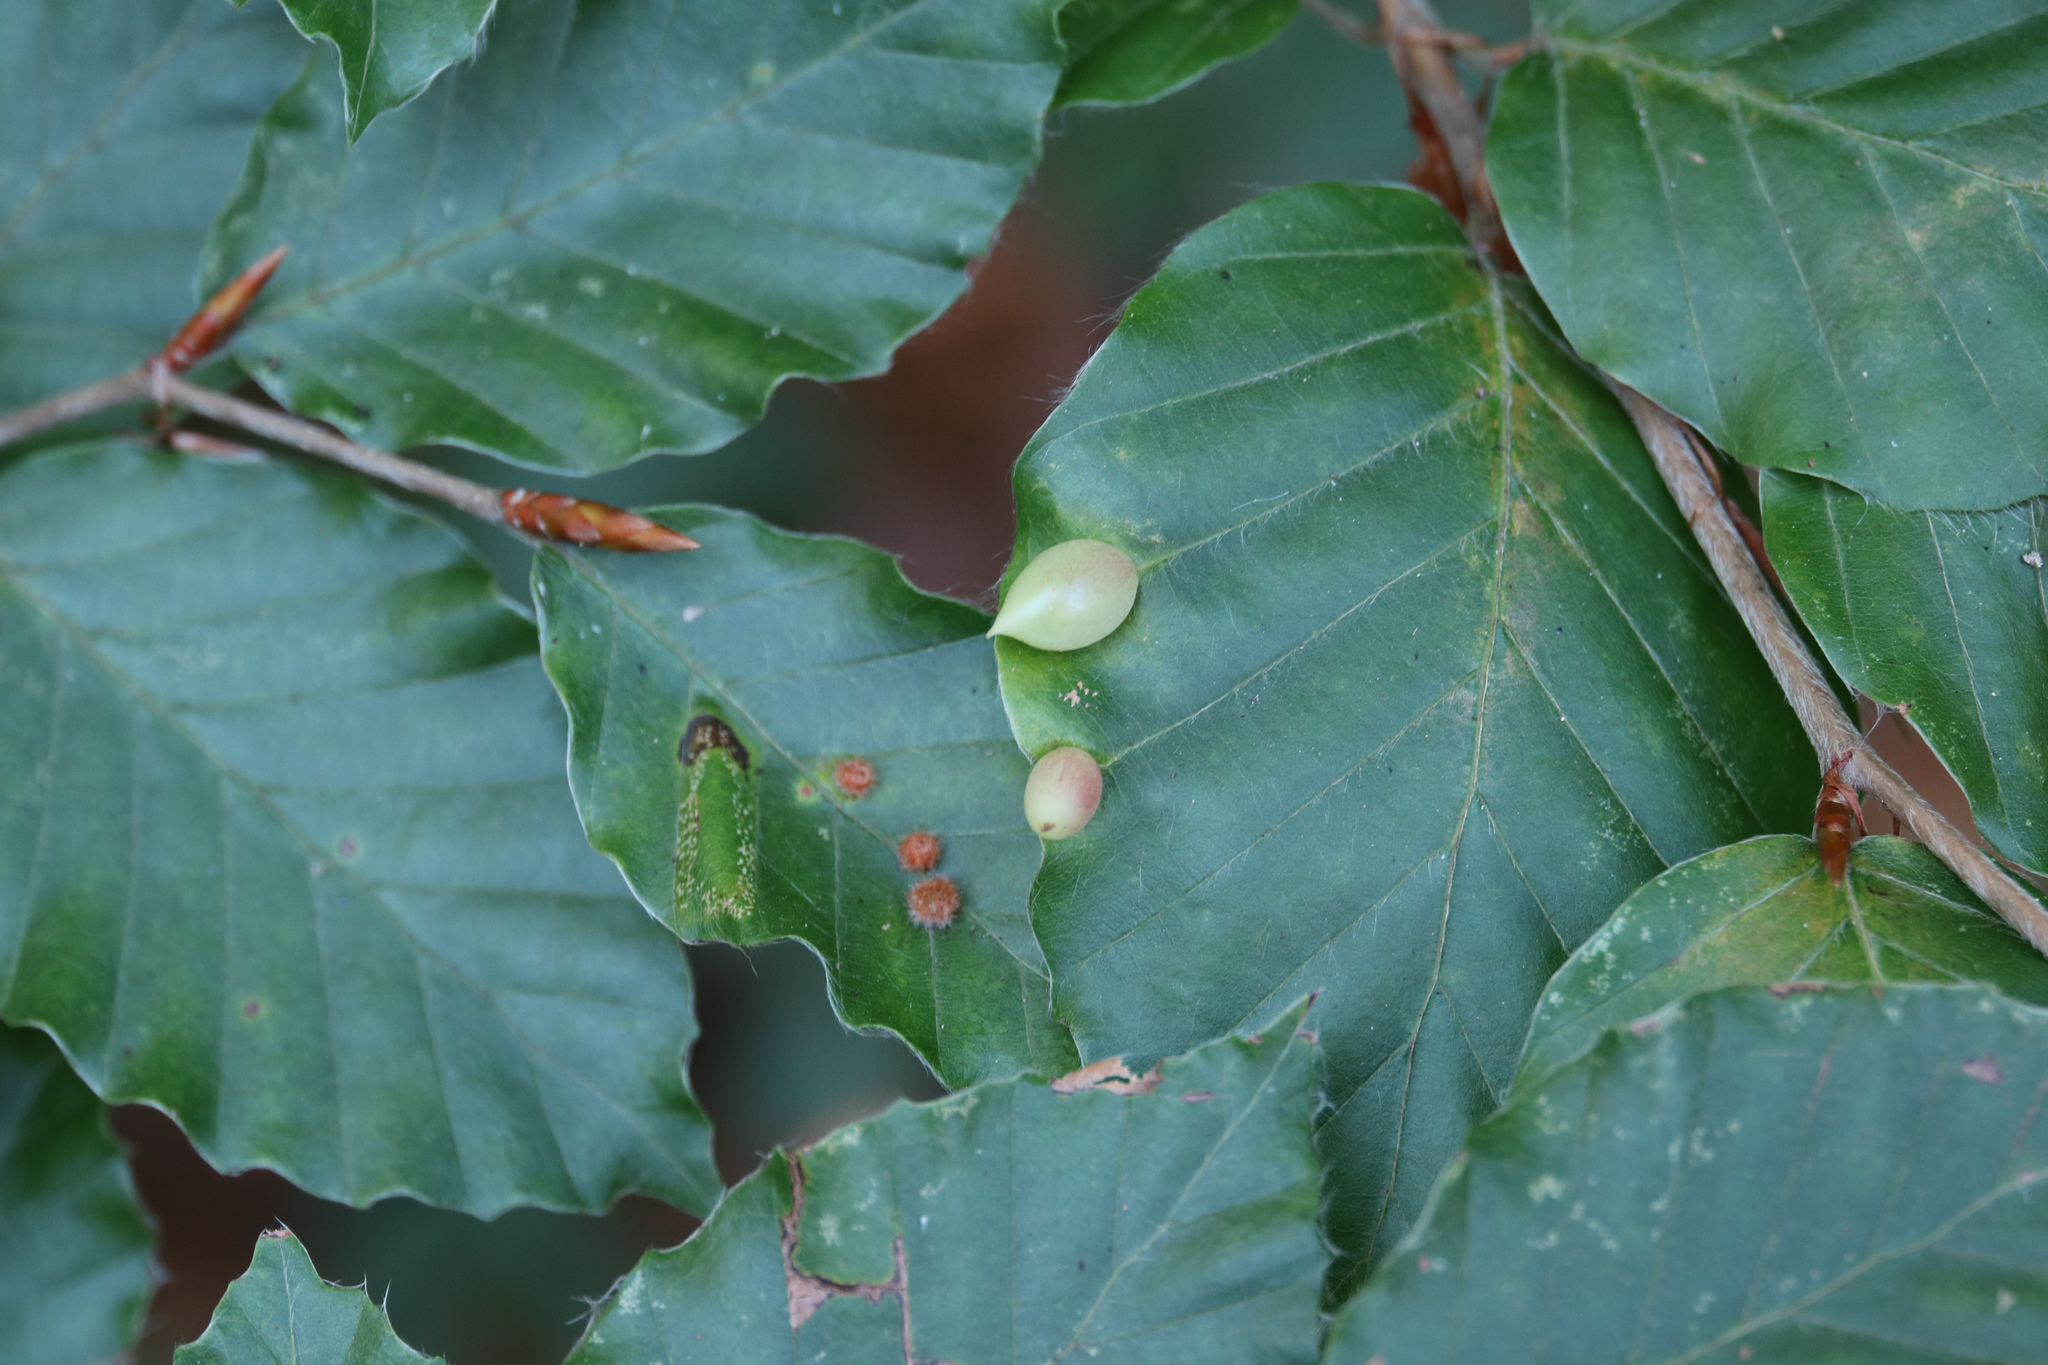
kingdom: Animalia
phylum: Arthropoda
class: Insecta
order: Diptera
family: Cecidomyiidae
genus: Mikiola
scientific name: Mikiola fagi
